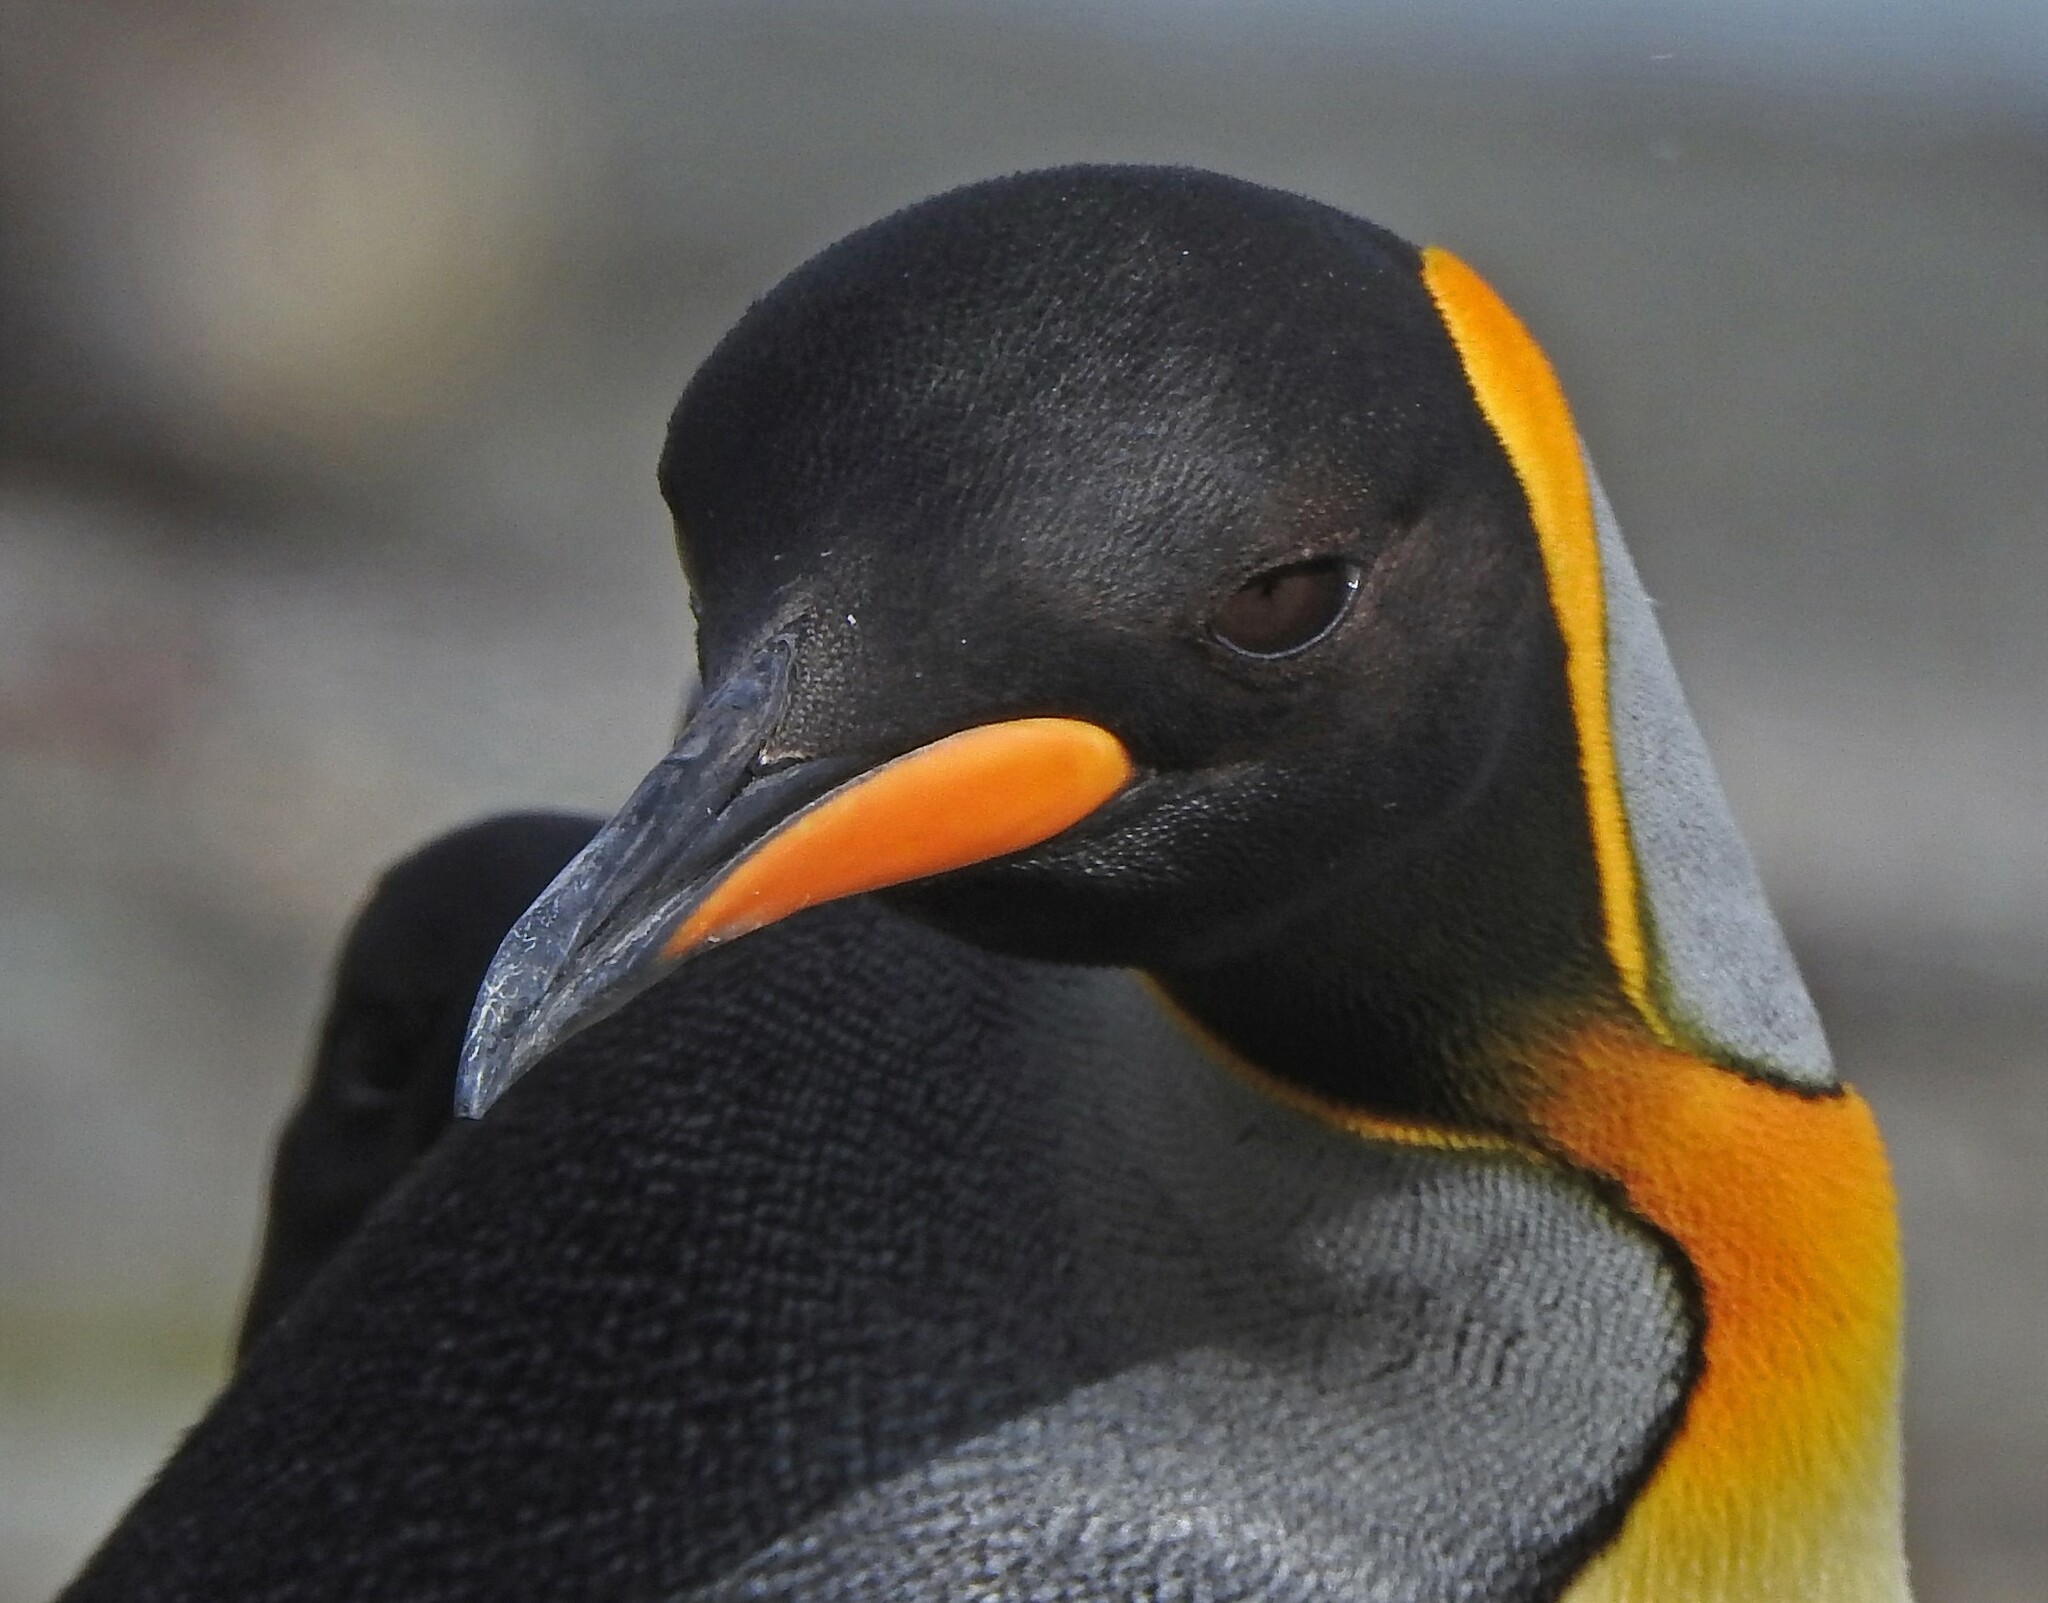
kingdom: Animalia
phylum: Chordata
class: Aves
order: Sphenisciformes
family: Spheniscidae
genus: Aptenodytes
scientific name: Aptenodytes patagonicus
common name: King penguin
